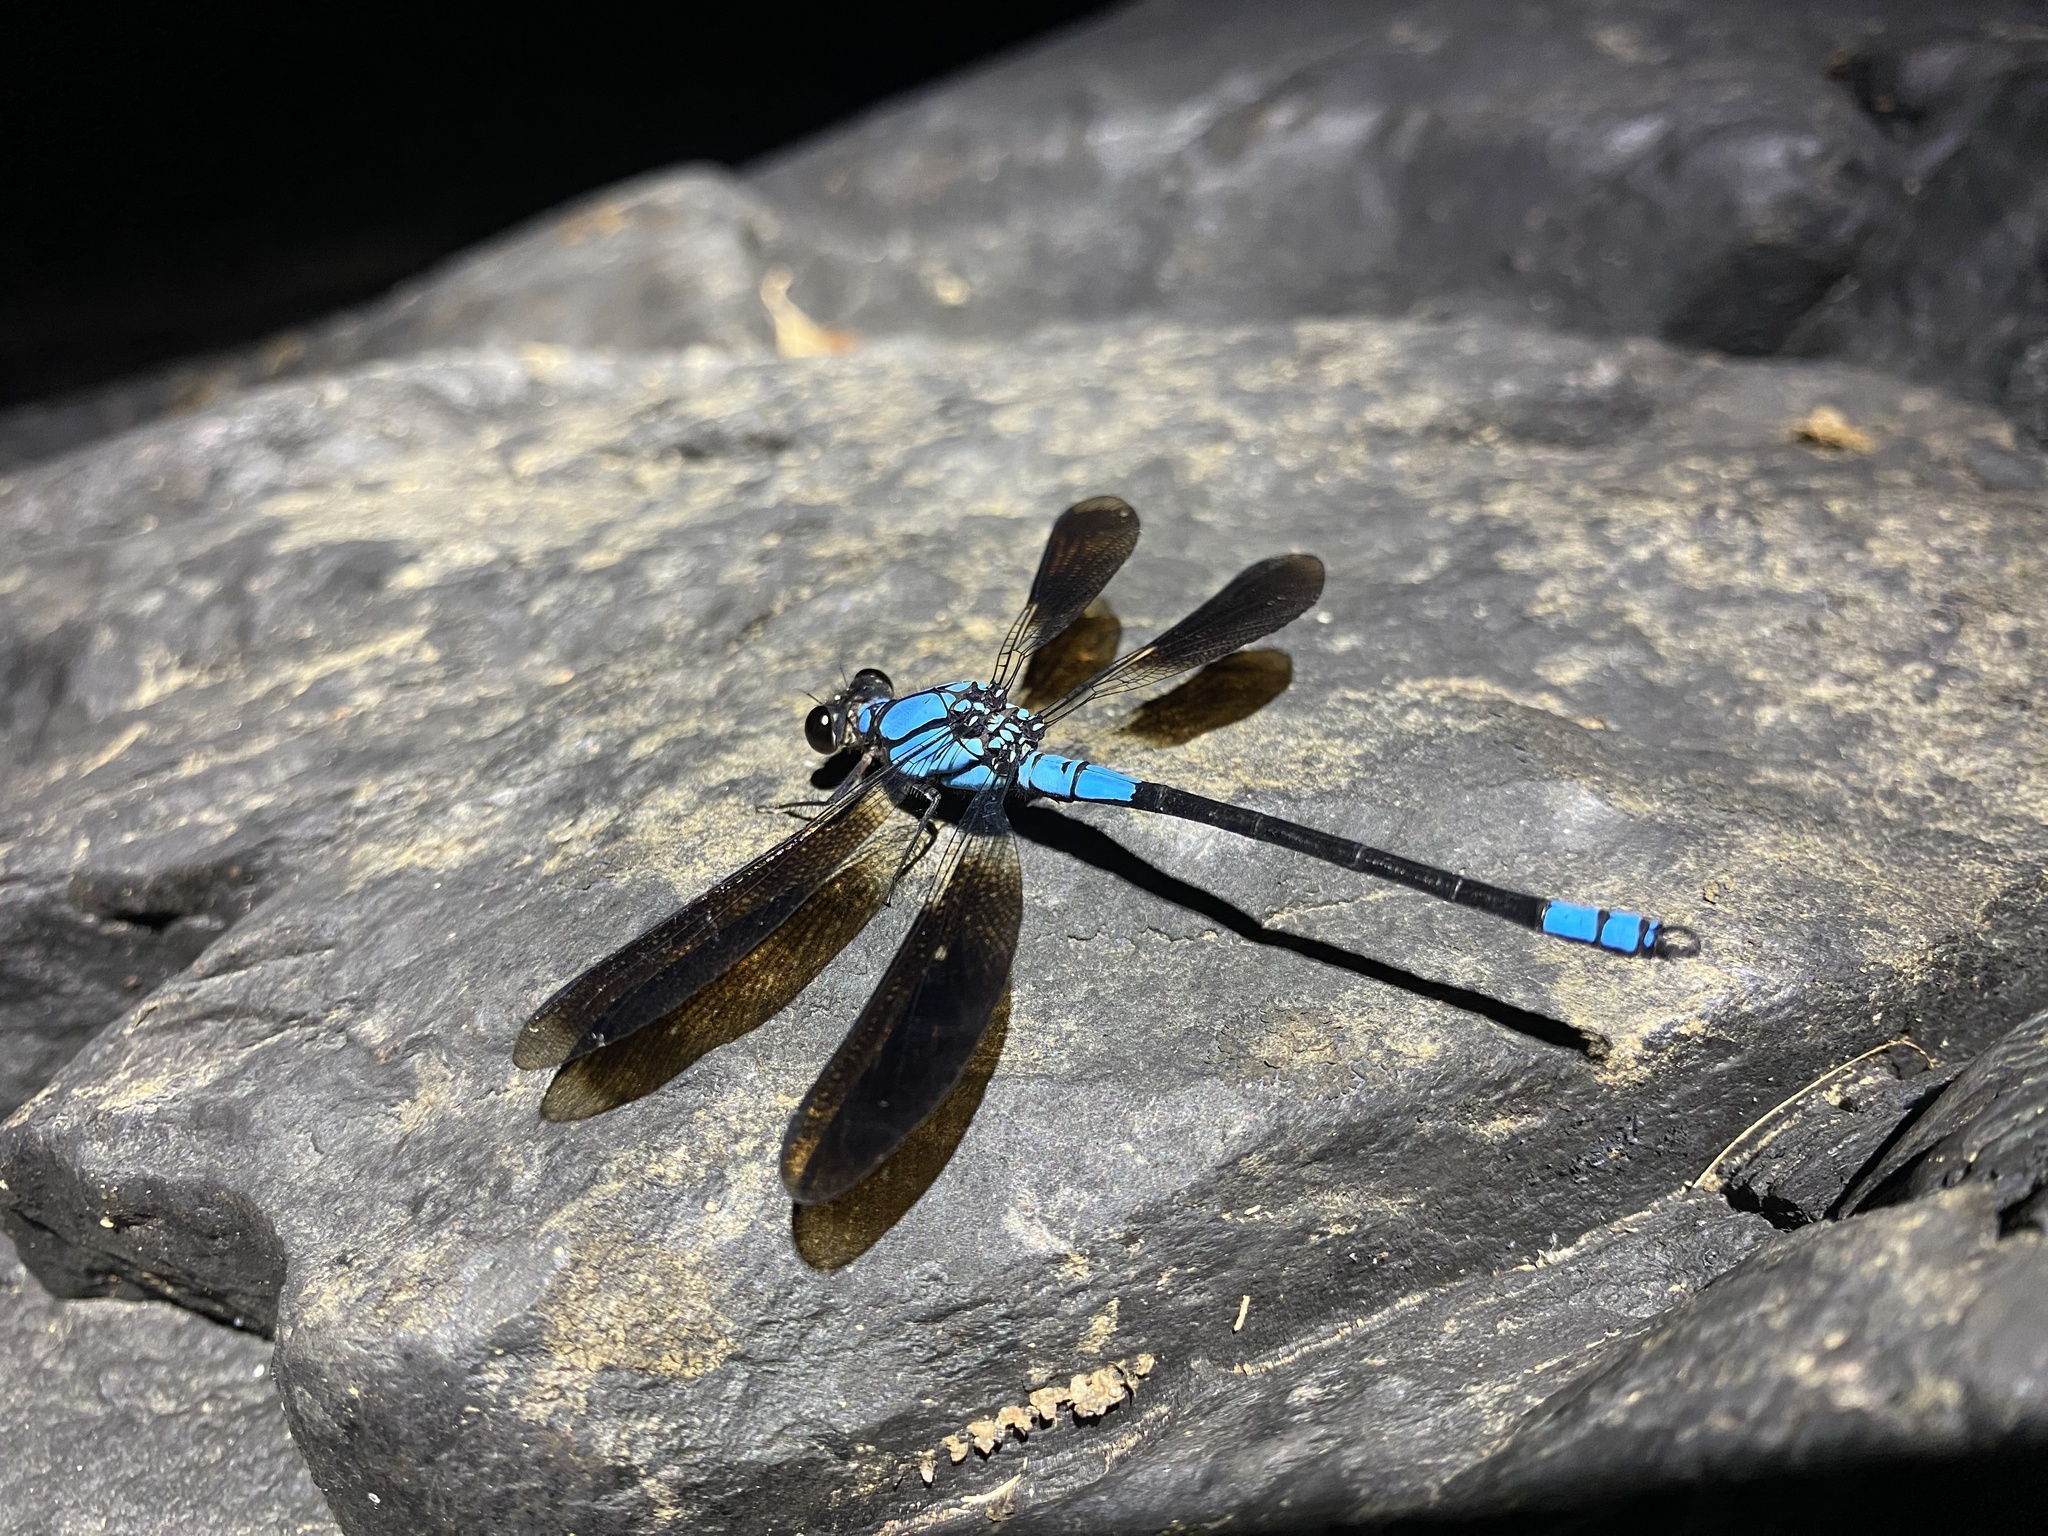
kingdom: Animalia
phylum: Arthropoda
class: Insecta
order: Odonata
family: Lestoideidae
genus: Diphlebia
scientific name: Diphlebia euphoeoides
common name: Tropical rockmaster
